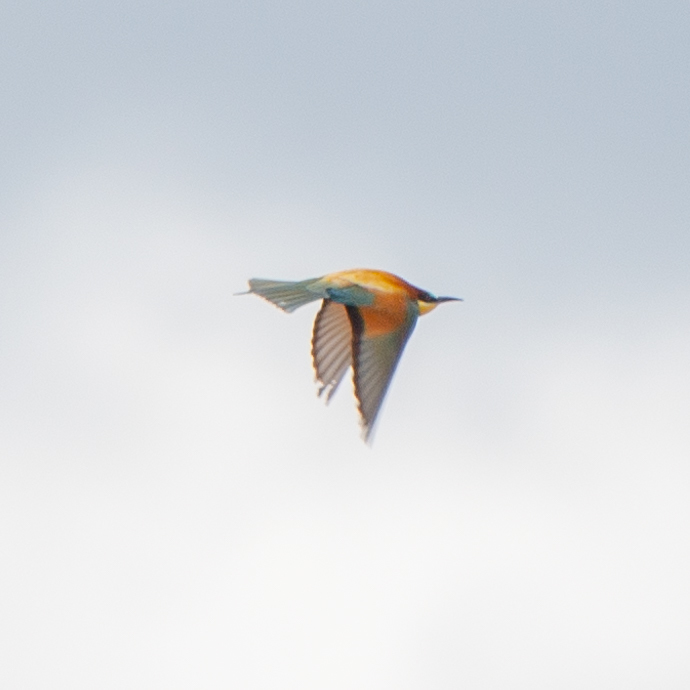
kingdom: Animalia
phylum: Chordata
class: Aves
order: Coraciiformes
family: Meropidae
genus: Merops
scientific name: Merops apiaster
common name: European bee-eater
